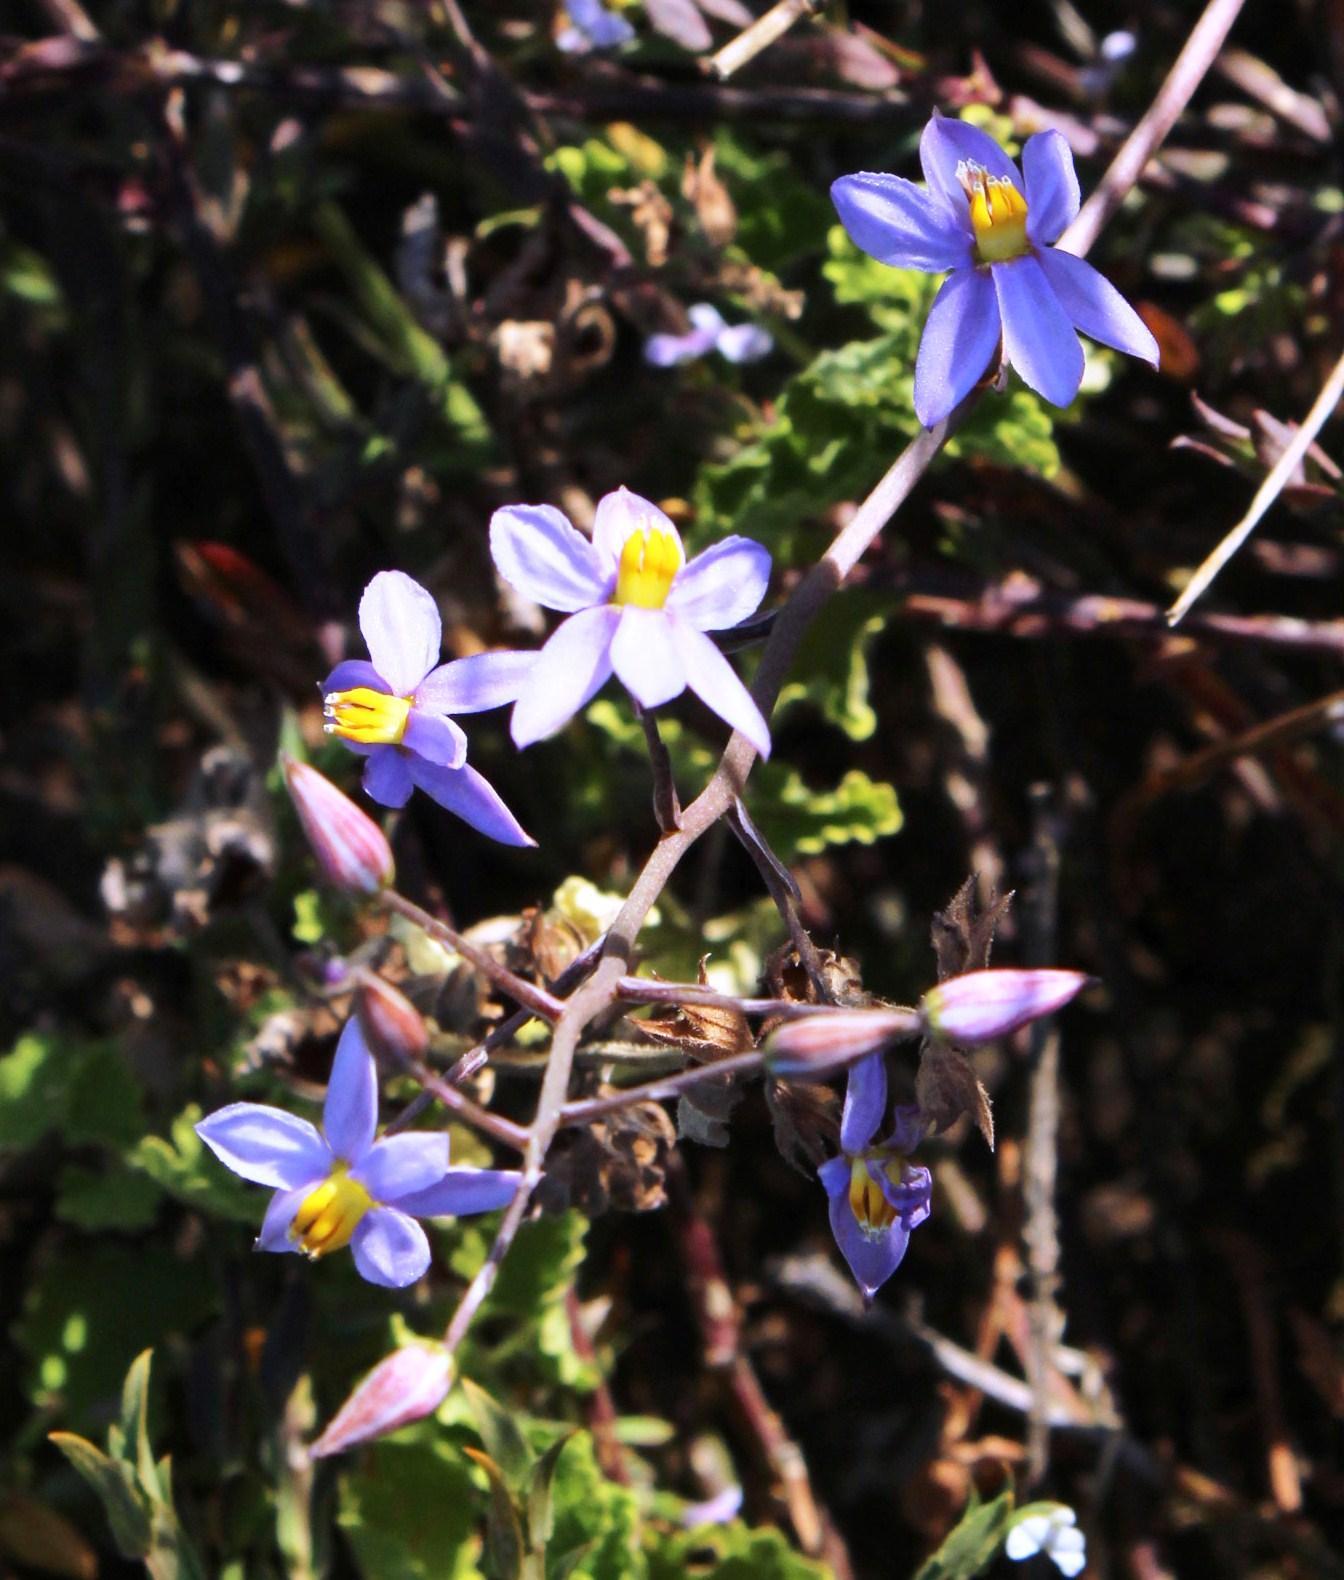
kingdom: Plantae
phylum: Tracheophyta
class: Liliopsida
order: Asparagales
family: Tecophilaeaceae
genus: Cyanella
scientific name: Cyanella hyacinthoides
